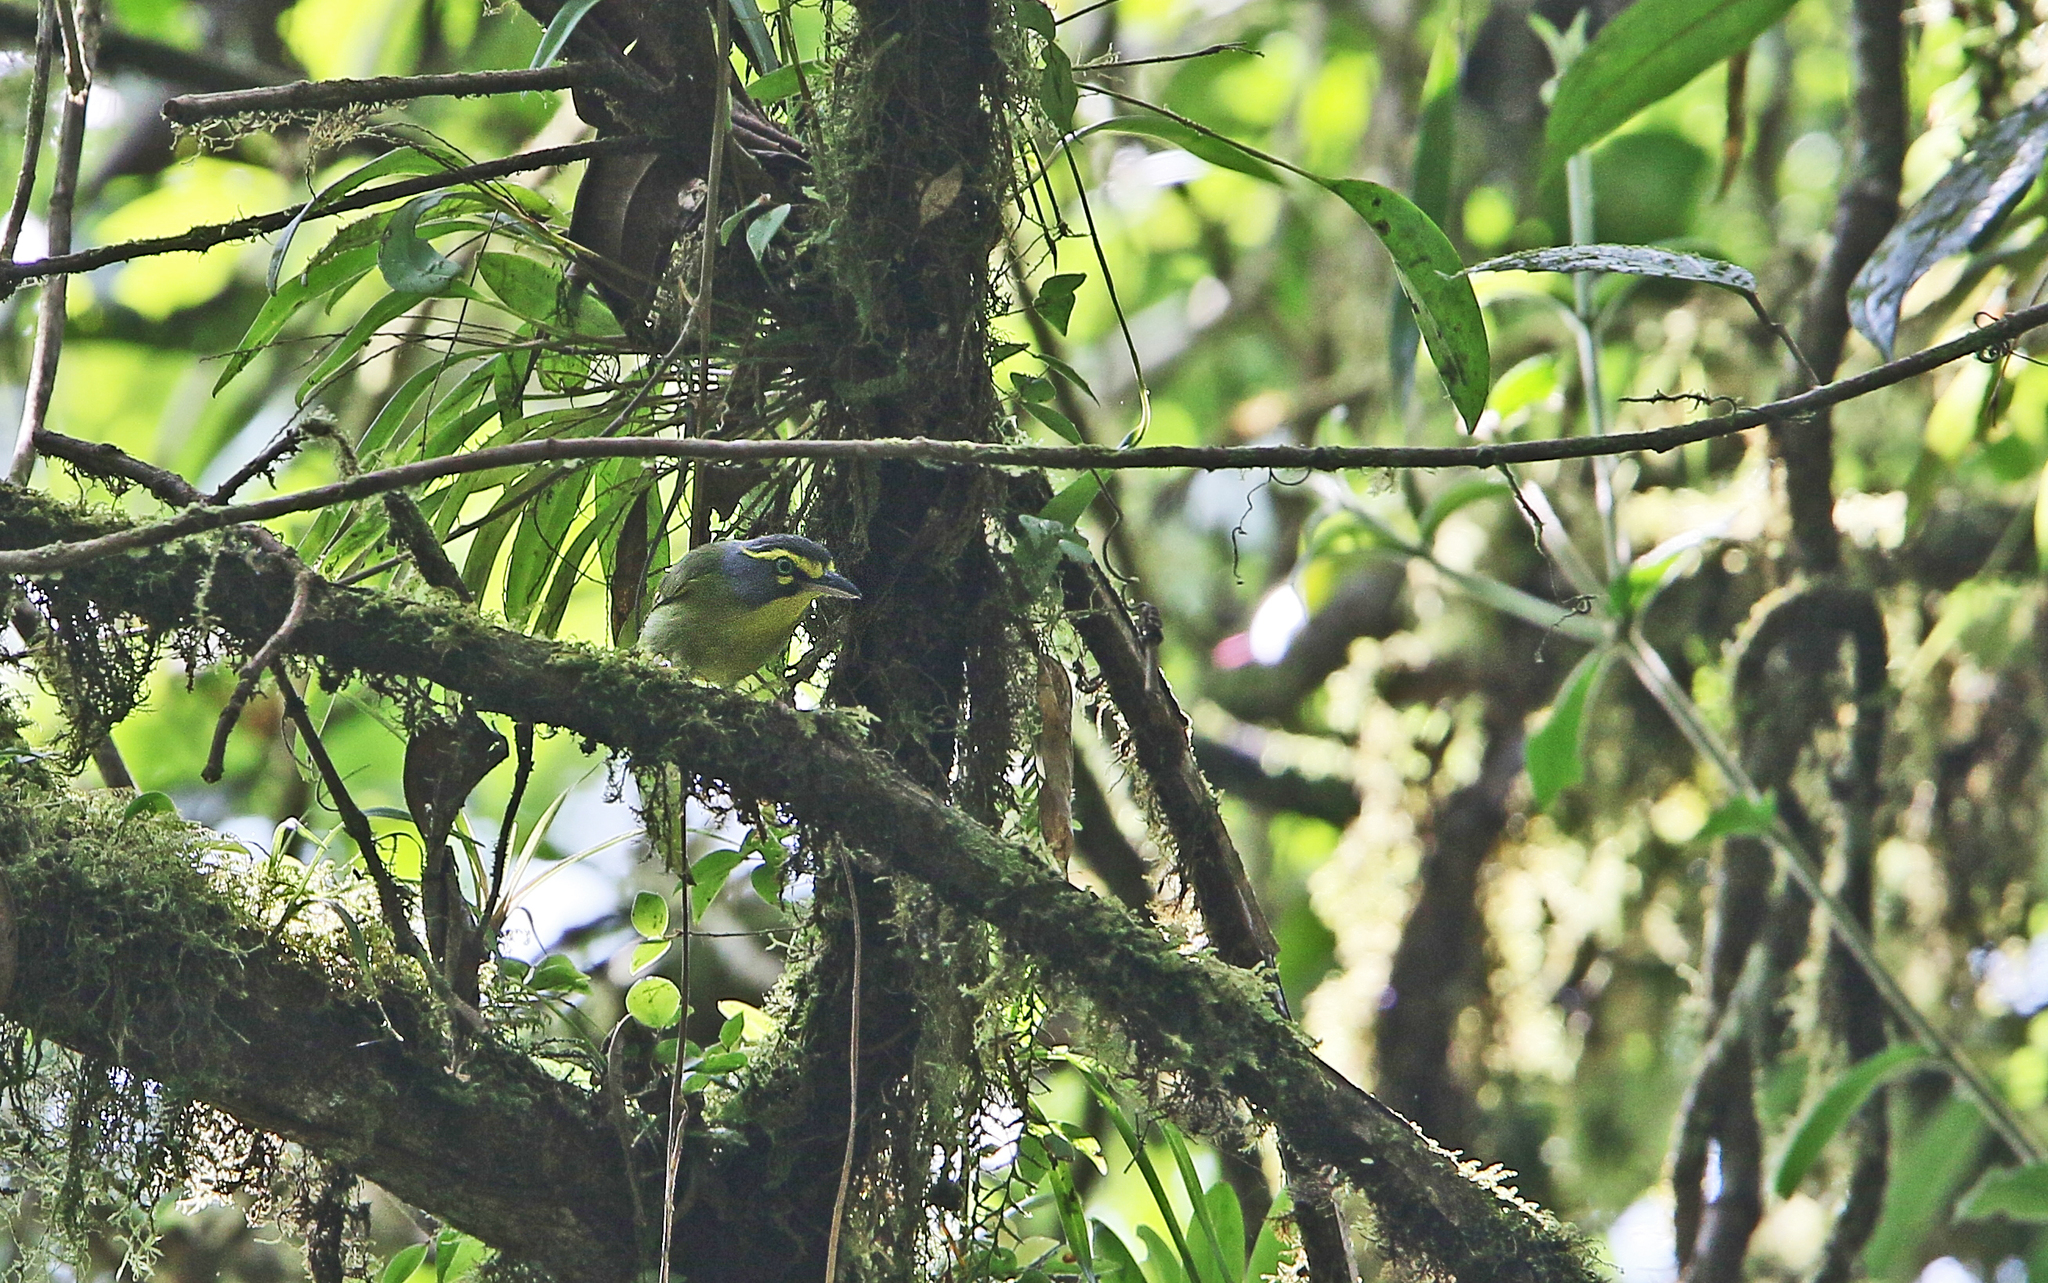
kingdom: Animalia
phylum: Chordata
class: Aves
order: Passeriformes
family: Vireonidae
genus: Vireolanius
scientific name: Vireolanius leucotis
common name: Slaty-capped shrike-vireo
